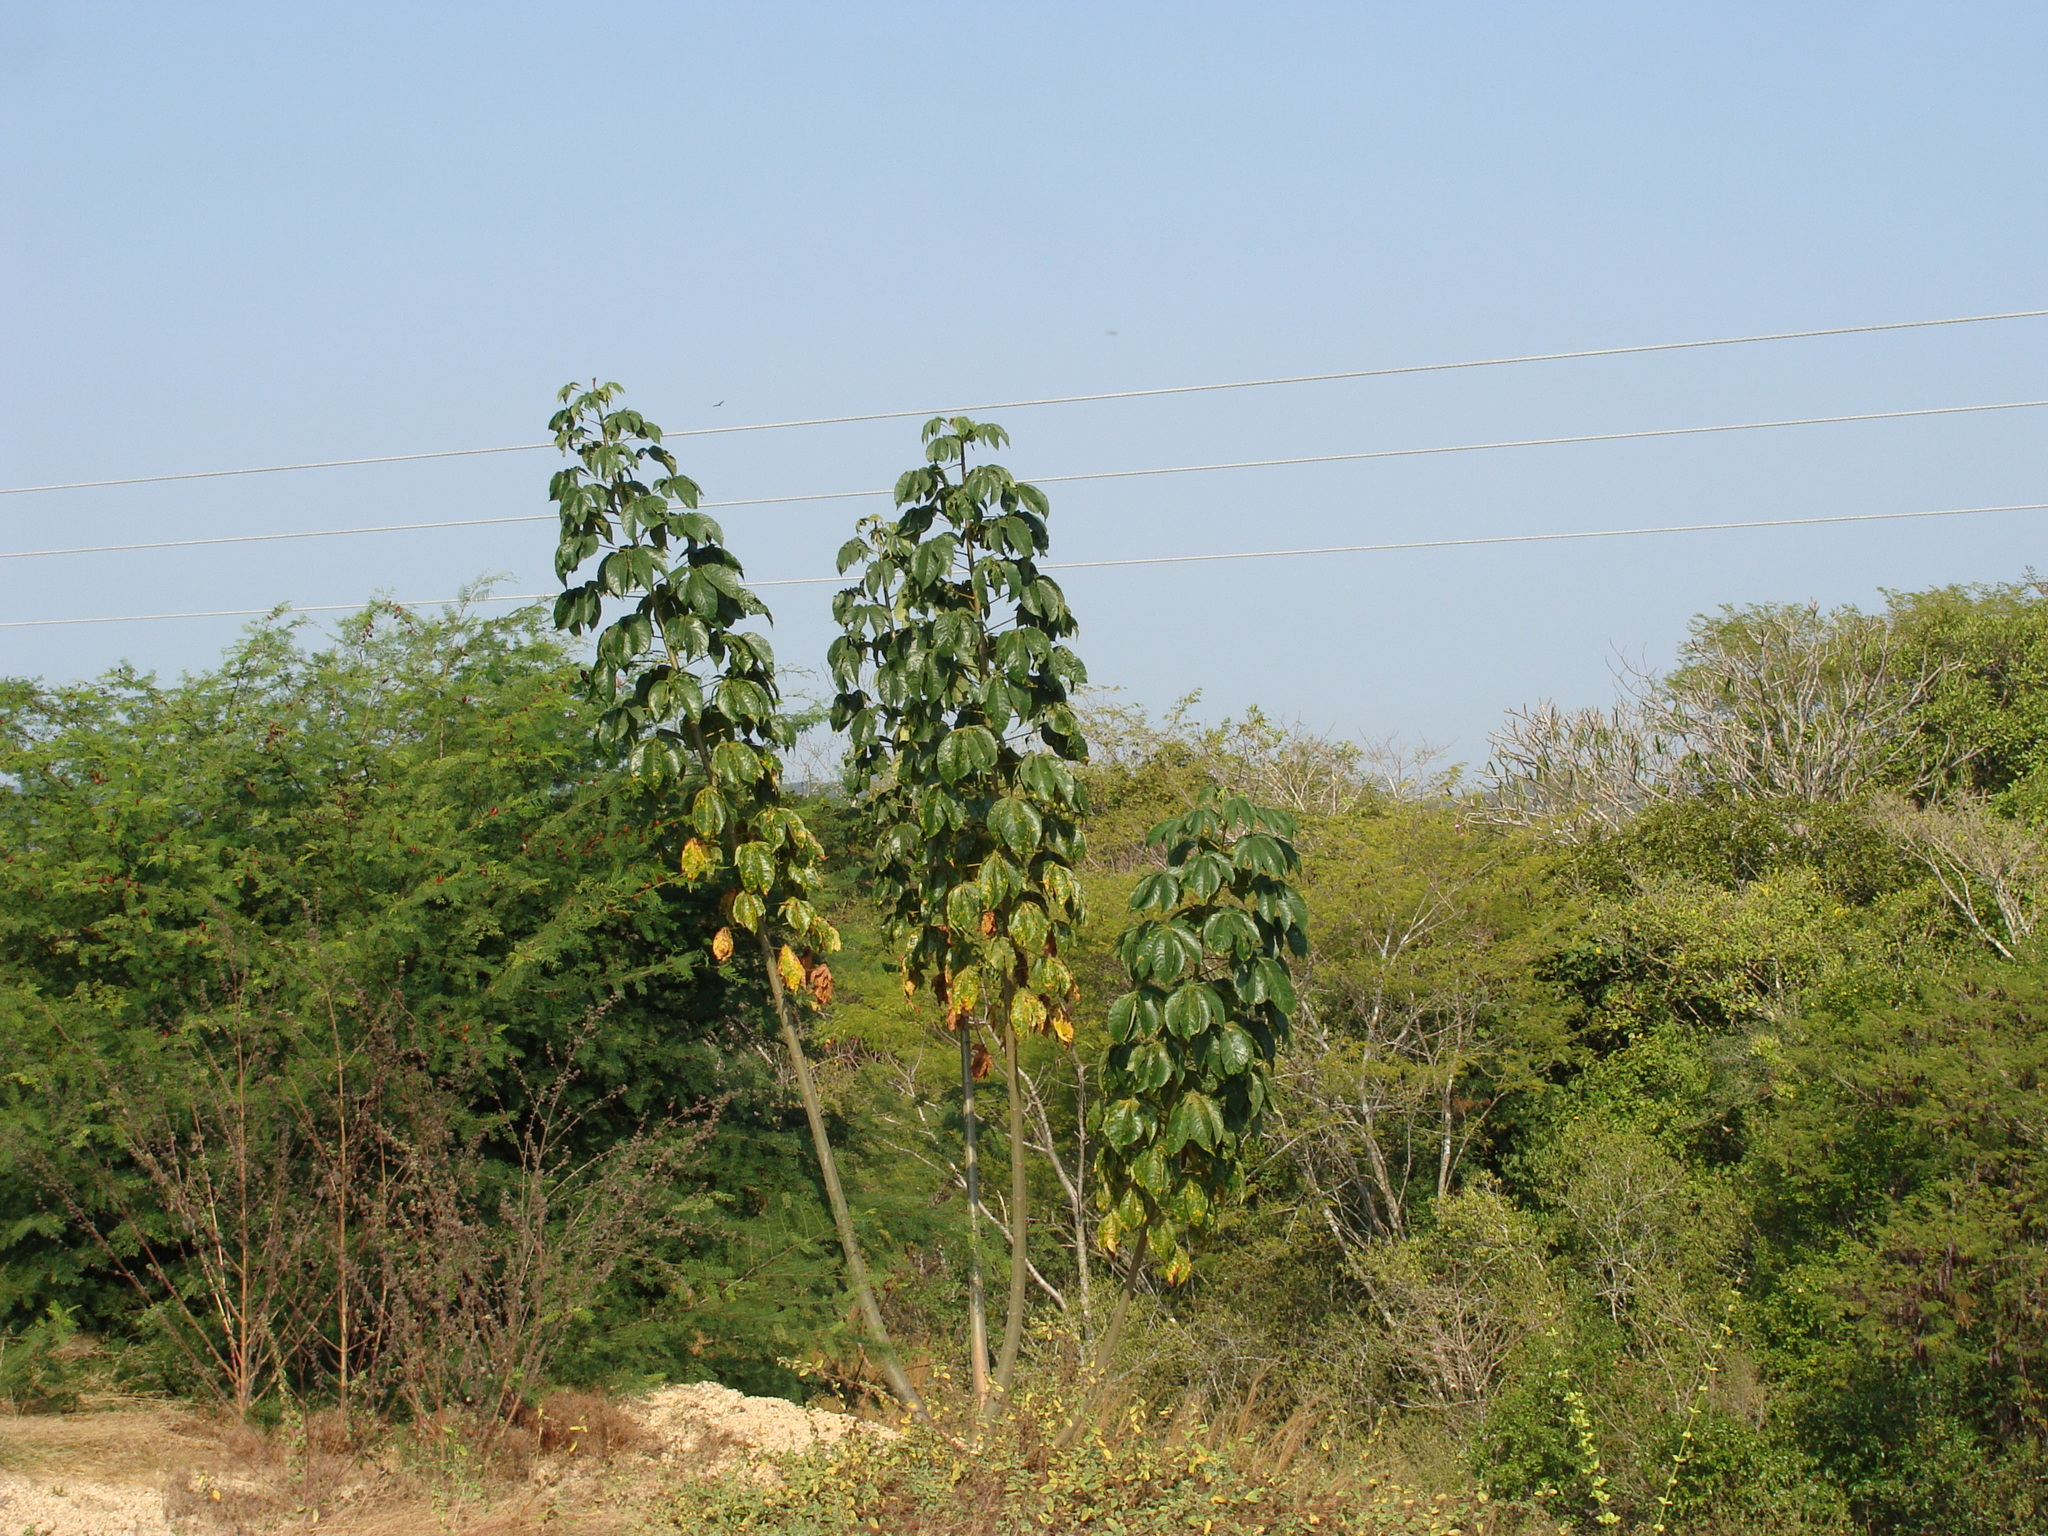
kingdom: Plantae
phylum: Tracheophyta
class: Magnoliopsida
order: Malvales
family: Cochlospermaceae
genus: Cochlospermum
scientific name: Cochlospermum vitifolium
